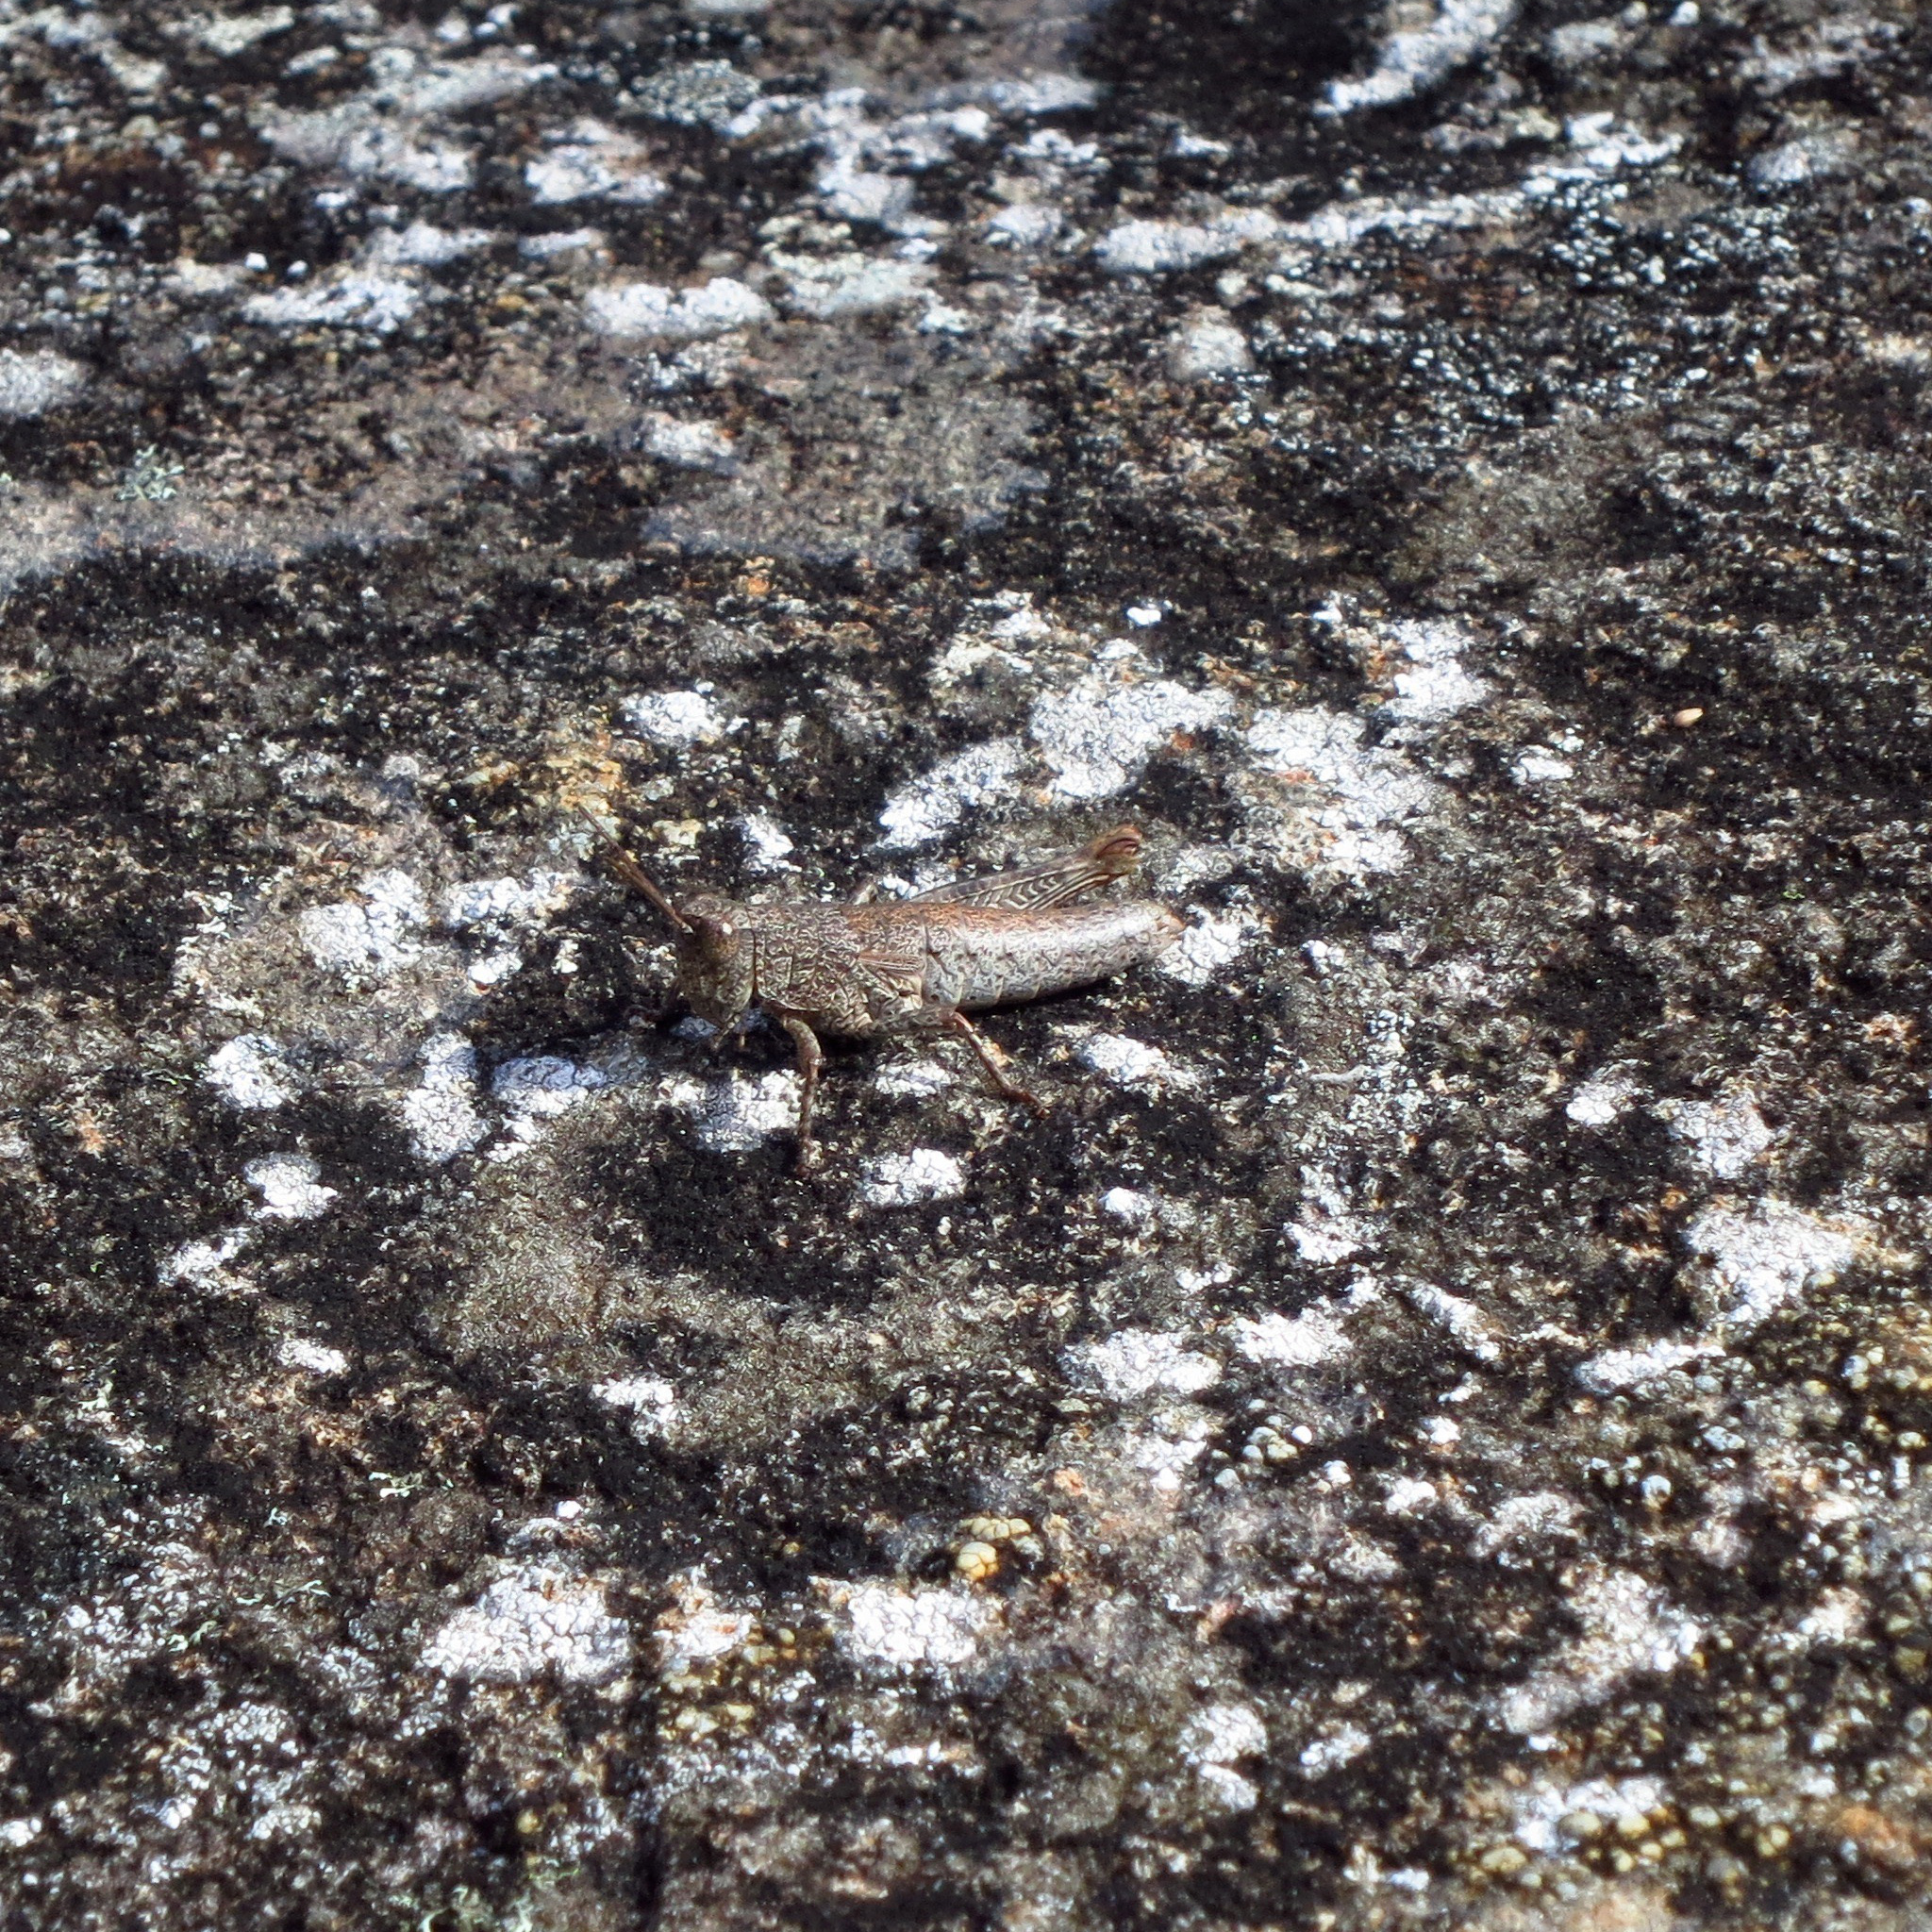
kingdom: Animalia
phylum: Arthropoda
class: Insecta
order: Orthoptera
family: Acrididae
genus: Tasmaniacris
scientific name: Tasmaniacris tasmaniensis
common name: Tasmanian grasshopper
